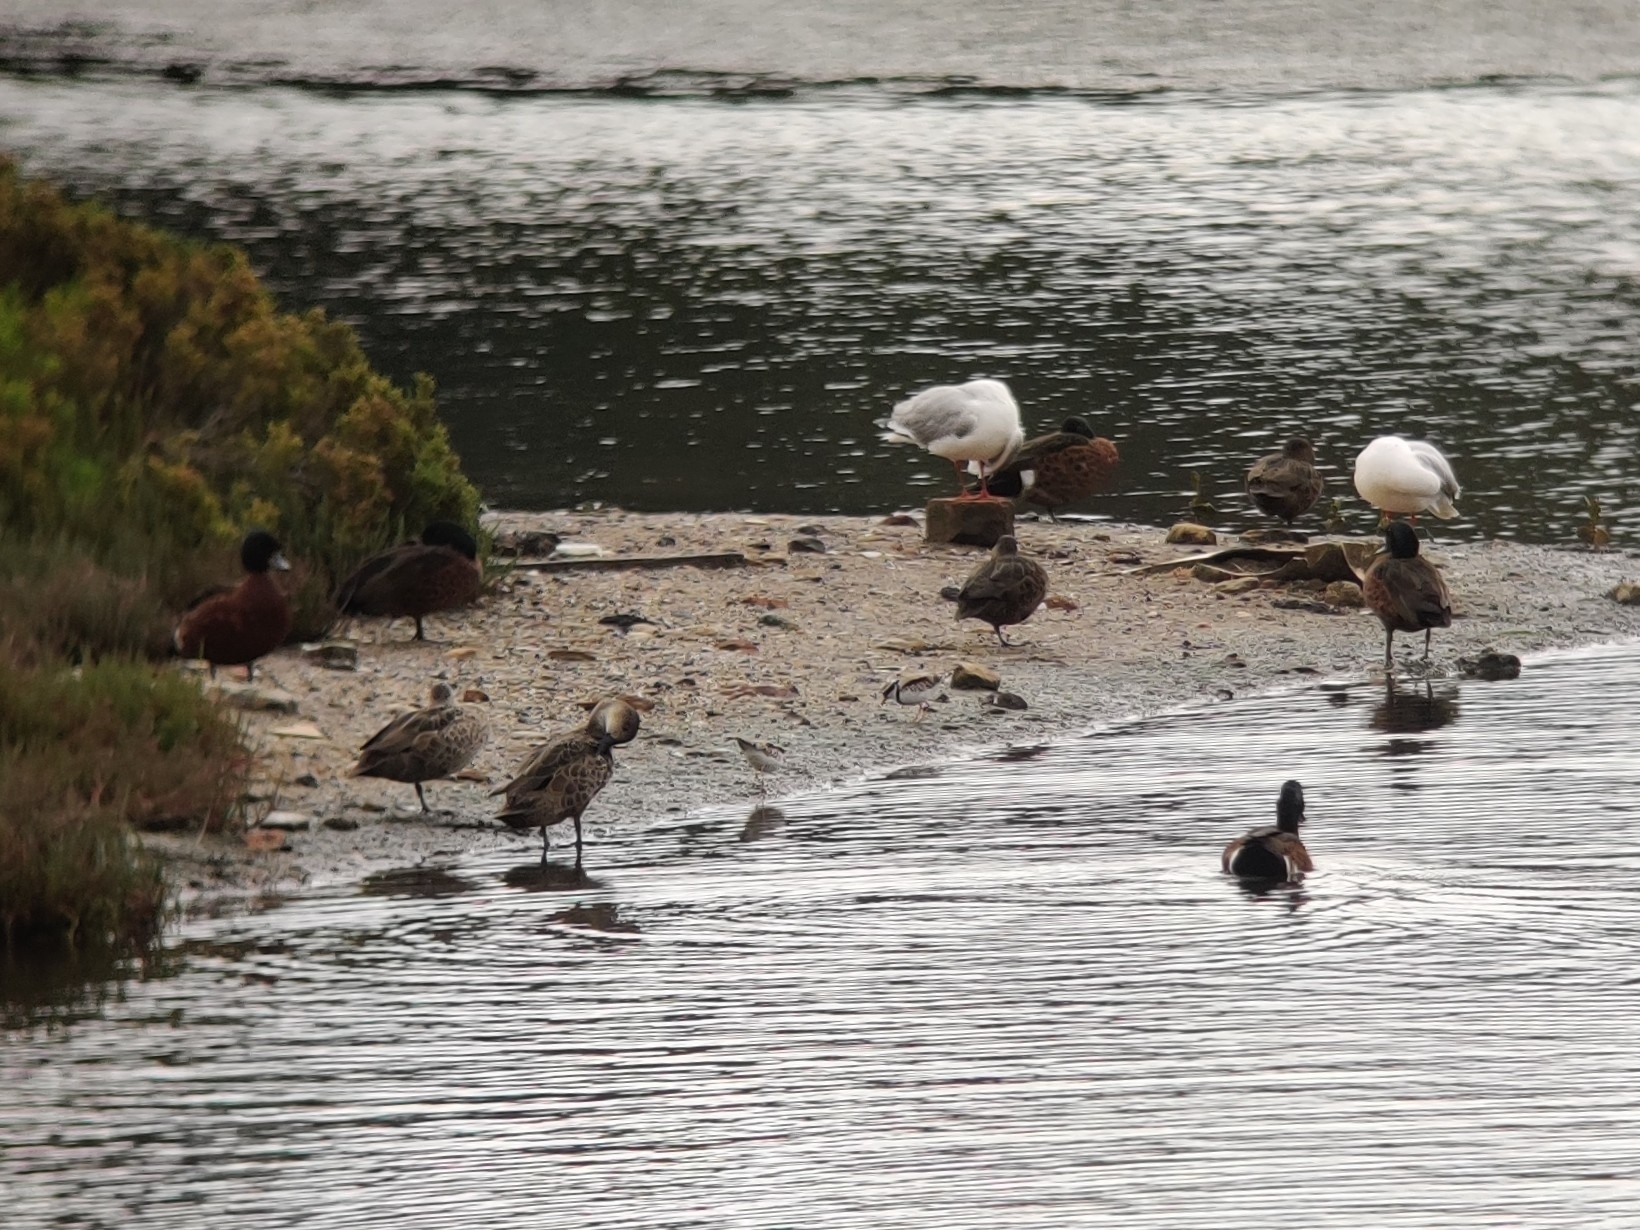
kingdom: Animalia
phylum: Chordata
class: Aves
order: Anseriformes
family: Anatidae
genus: Anas
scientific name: Anas gracilis
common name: Grey teal
